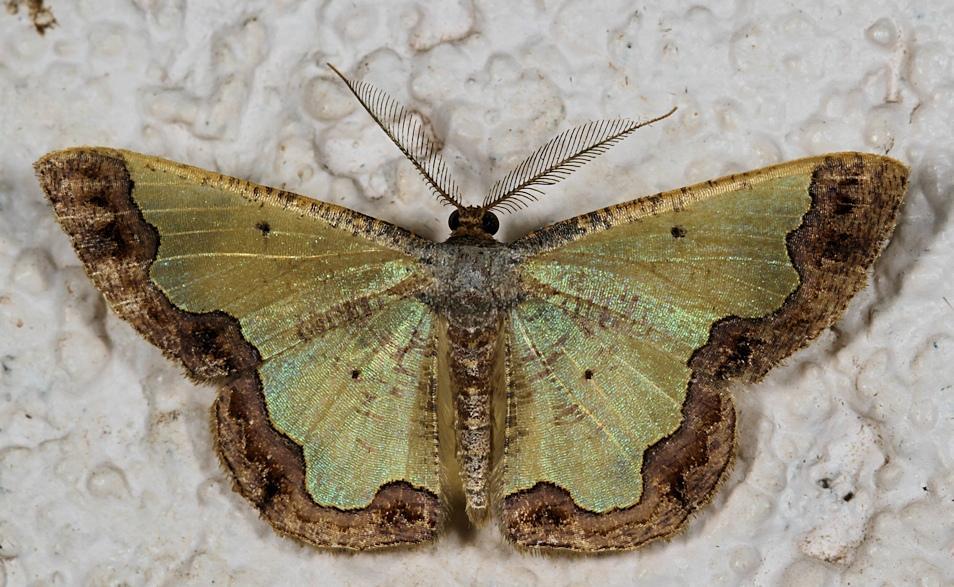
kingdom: Animalia
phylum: Arthropoda
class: Insecta
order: Lepidoptera
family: Geometridae
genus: Zamarada
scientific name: Zamarada plana
